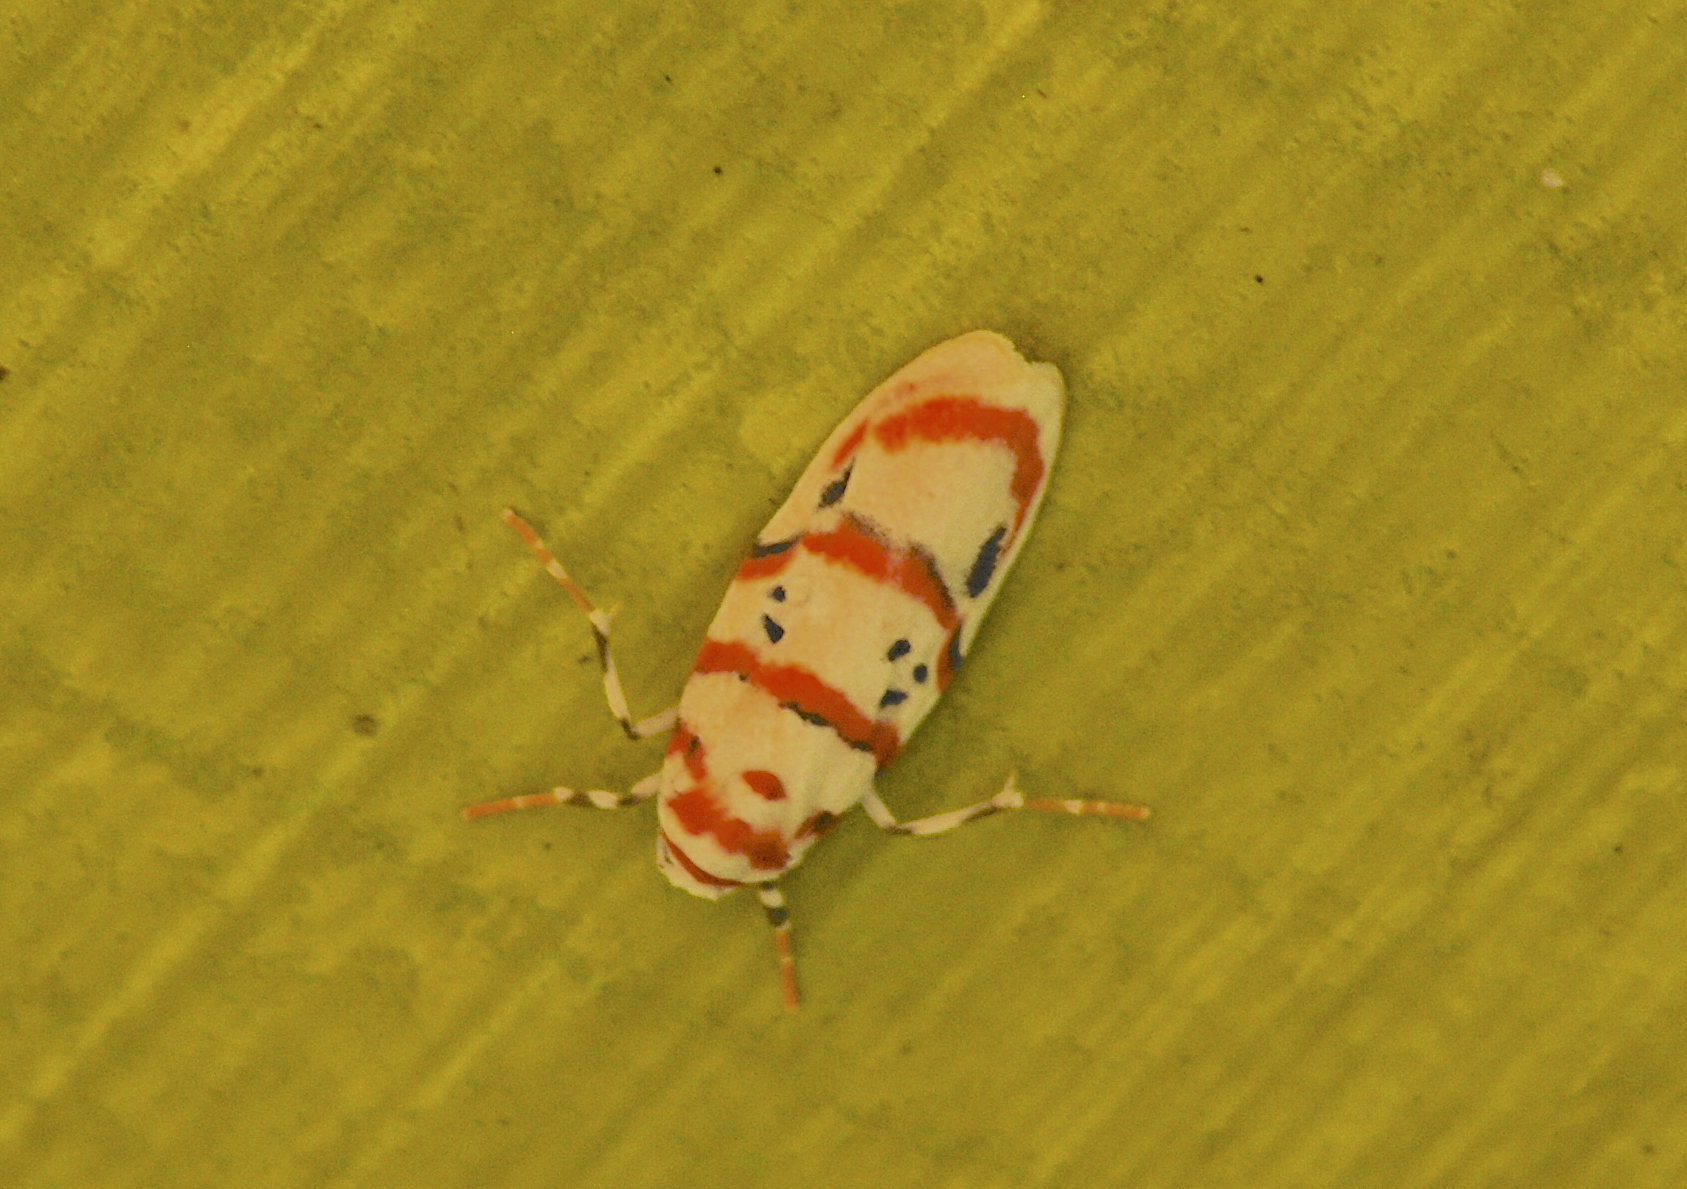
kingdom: Animalia
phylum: Arthropoda
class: Insecta
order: Lepidoptera
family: Erebidae
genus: Cyana
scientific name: Cyana linatula
